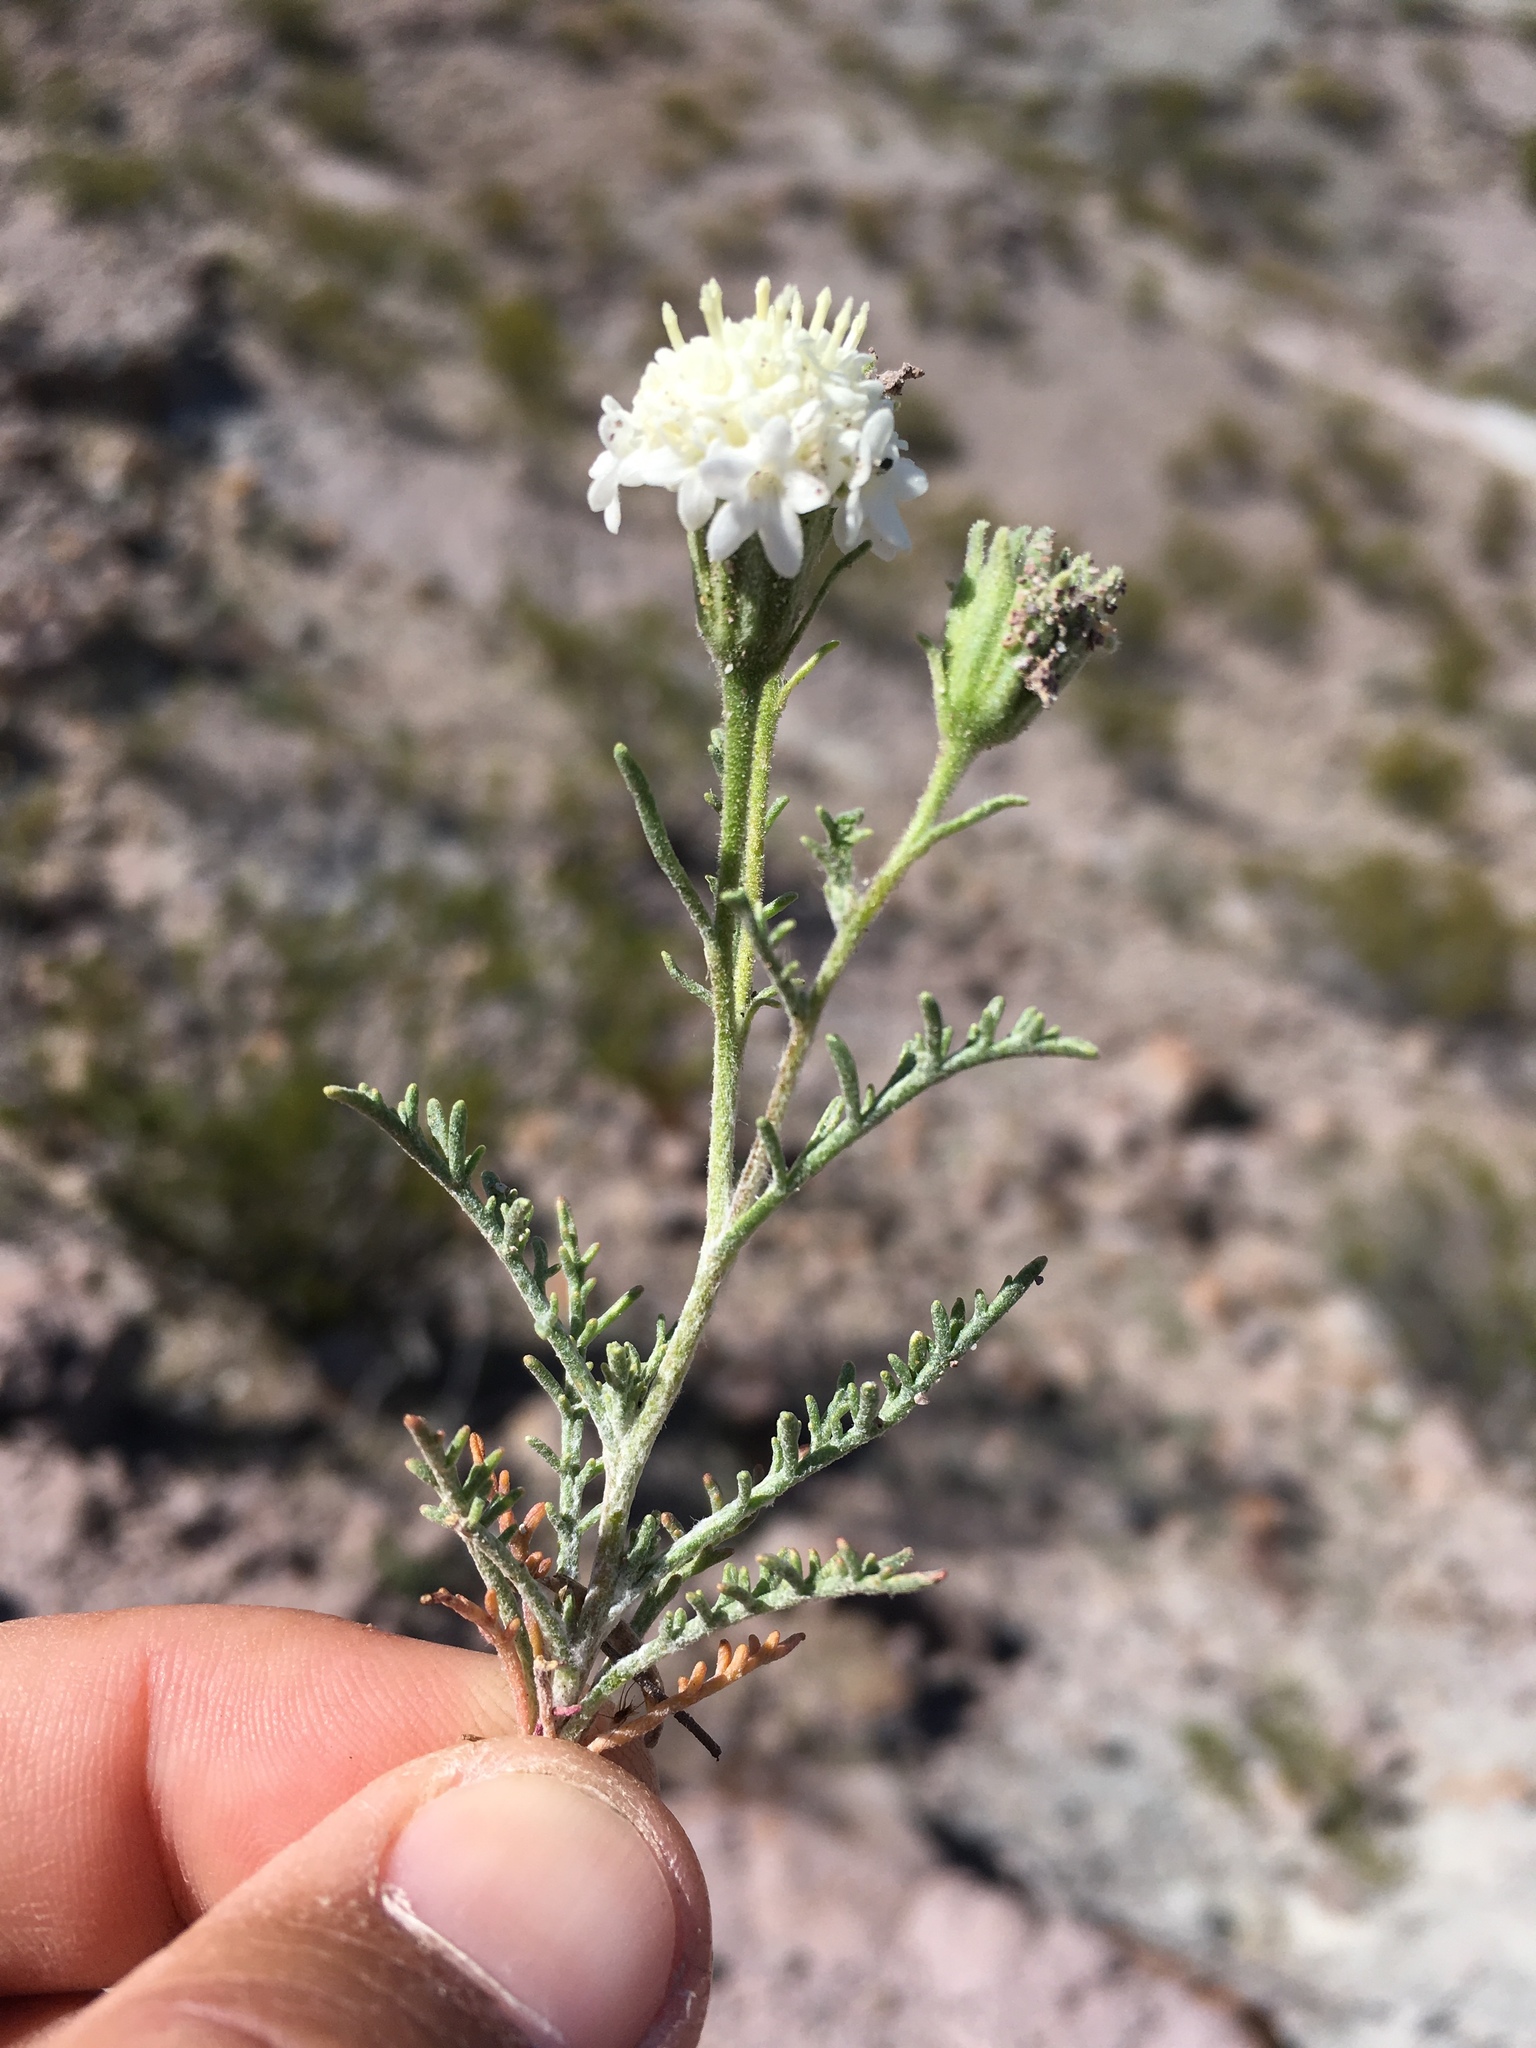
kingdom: Plantae
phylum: Tracheophyta
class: Magnoliopsida
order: Asterales
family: Asteraceae
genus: Chaenactis
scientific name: Chaenactis stevioides
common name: Desert pincushion
